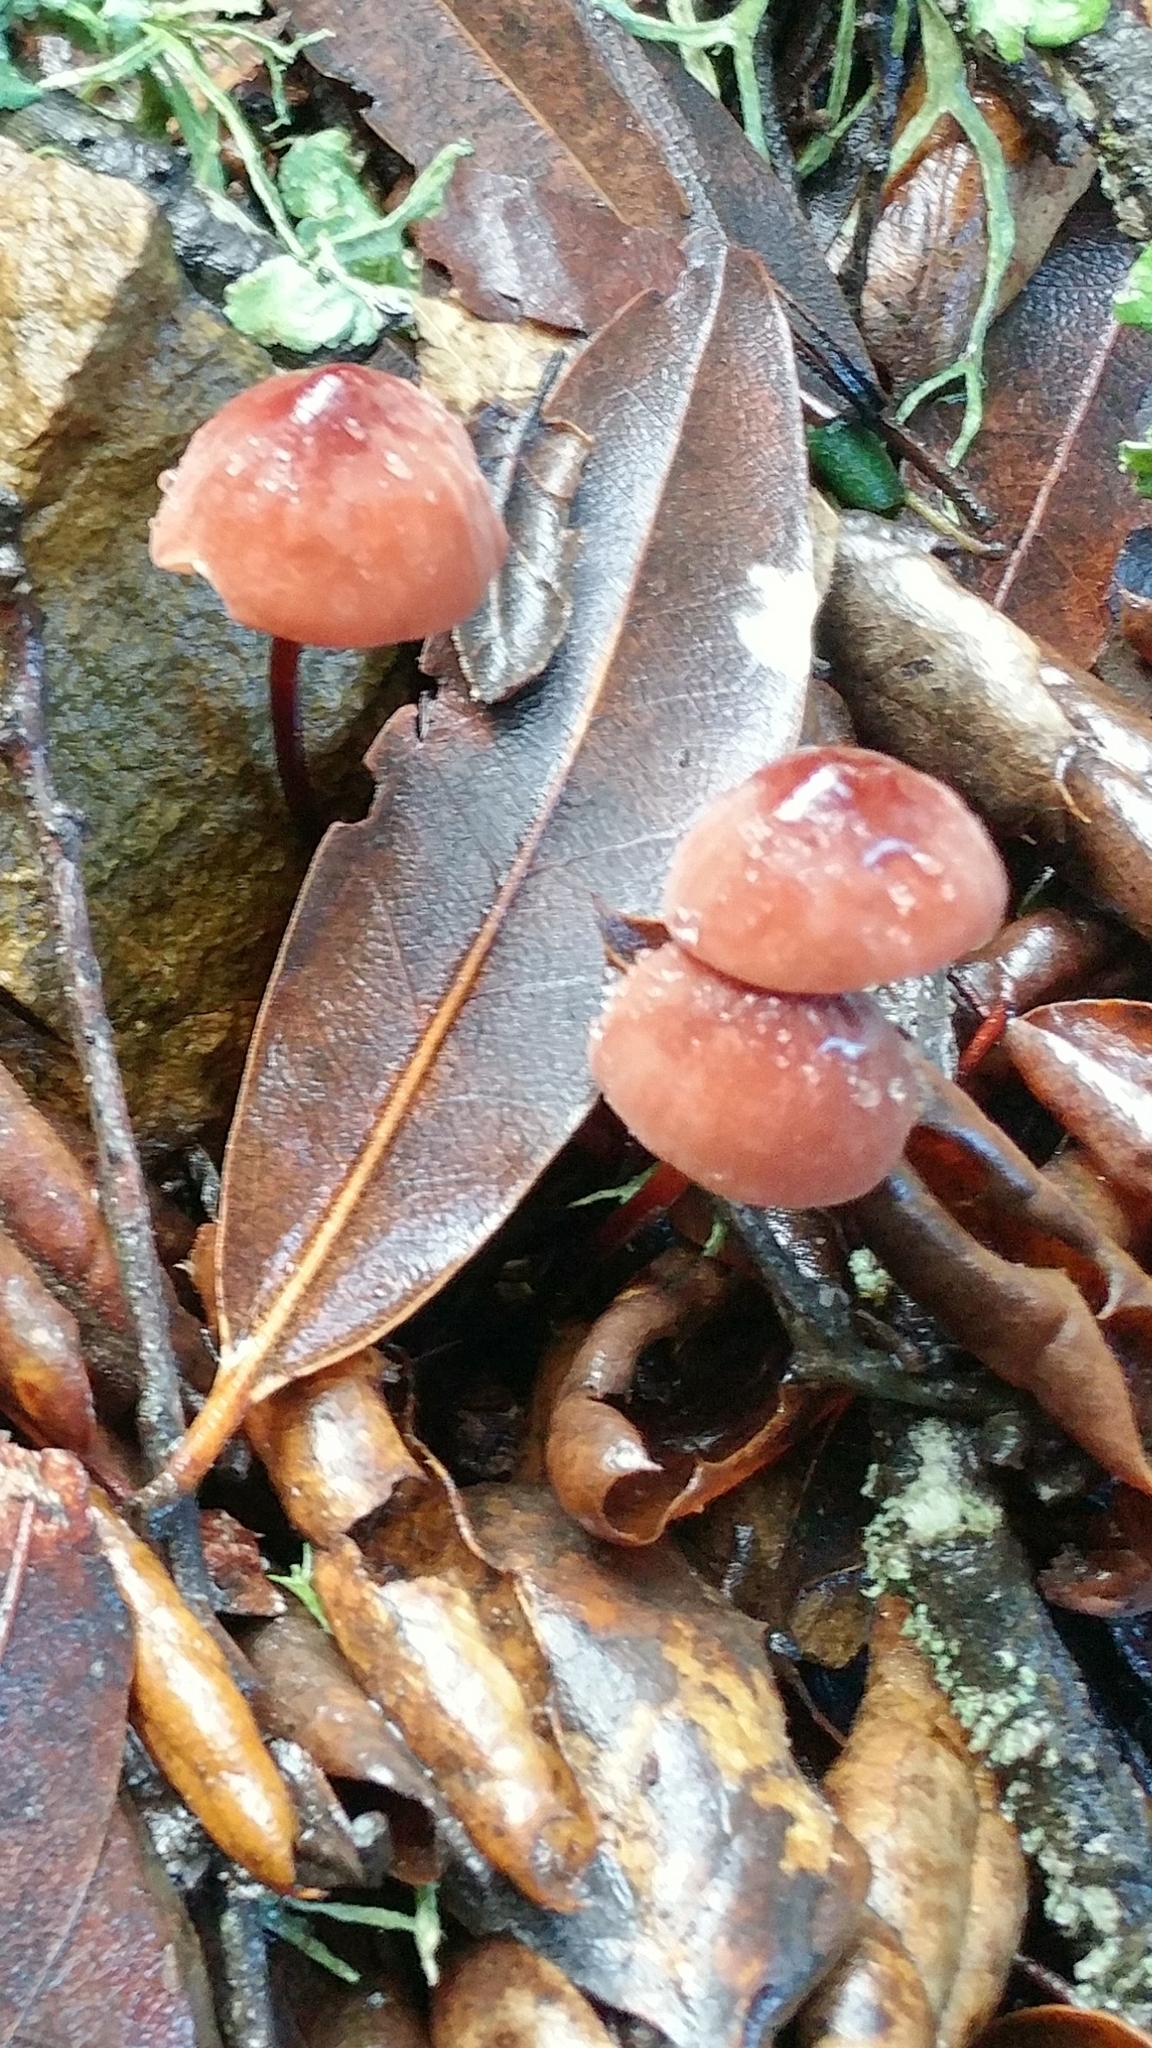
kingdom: Fungi
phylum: Basidiomycota
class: Agaricomycetes
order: Agaricales
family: Marasmiaceae
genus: Marasmius
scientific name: Marasmius plicatulus
